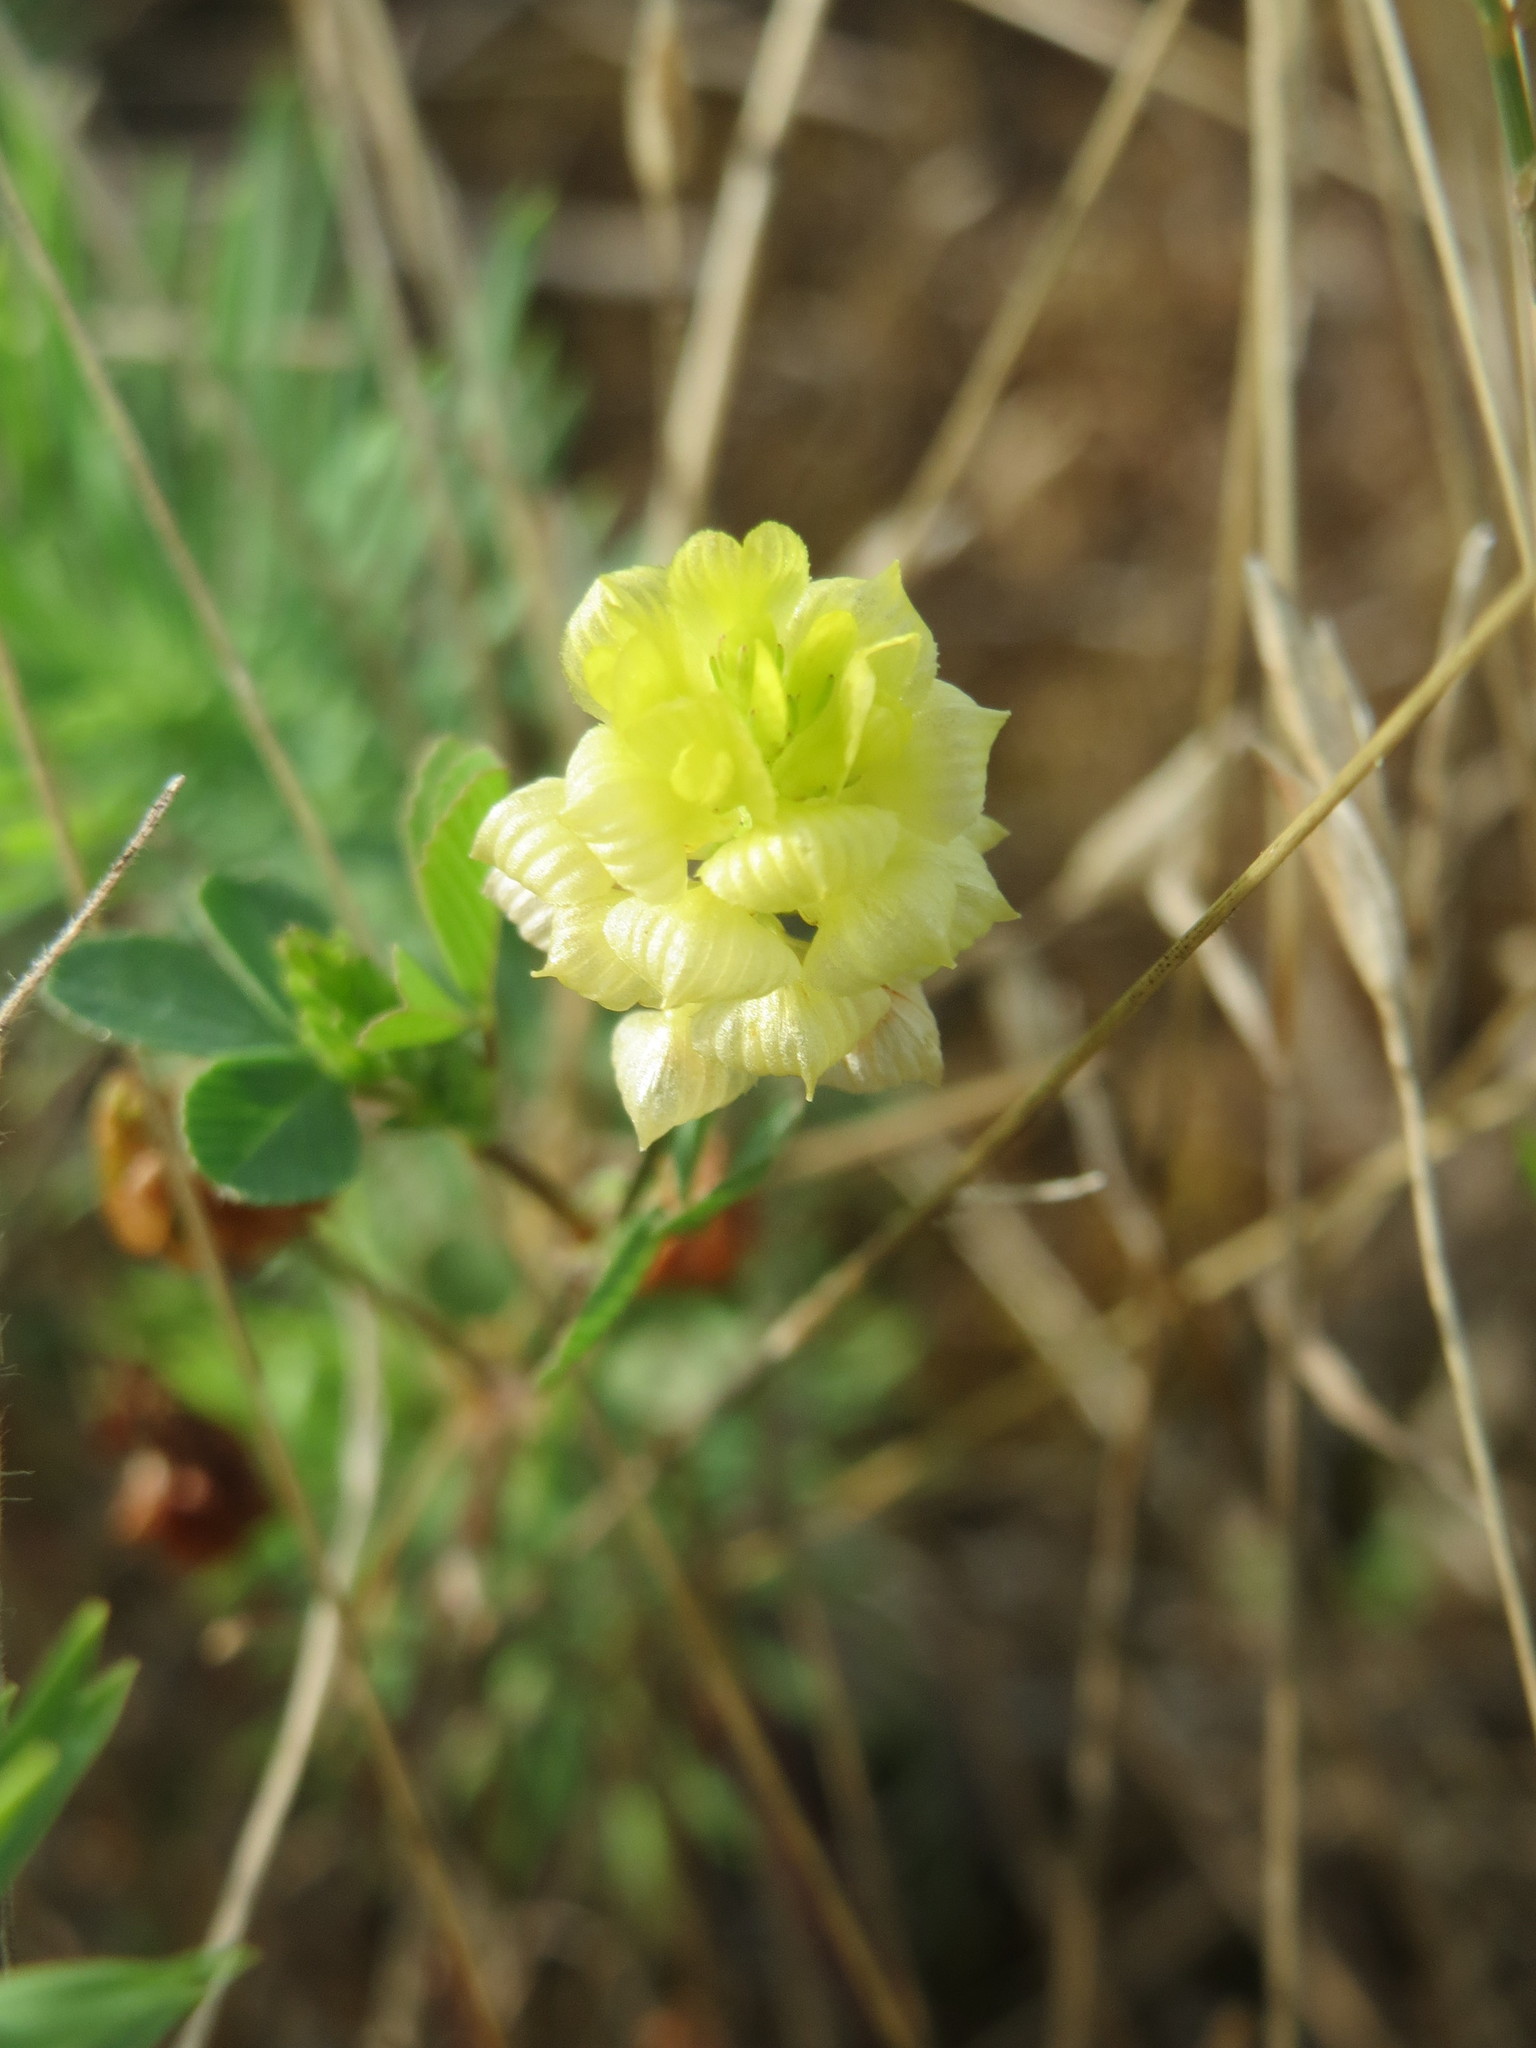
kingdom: Plantae
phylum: Tracheophyta
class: Magnoliopsida
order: Fabales
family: Fabaceae
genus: Trifolium
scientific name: Trifolium campestre
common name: Field clover
